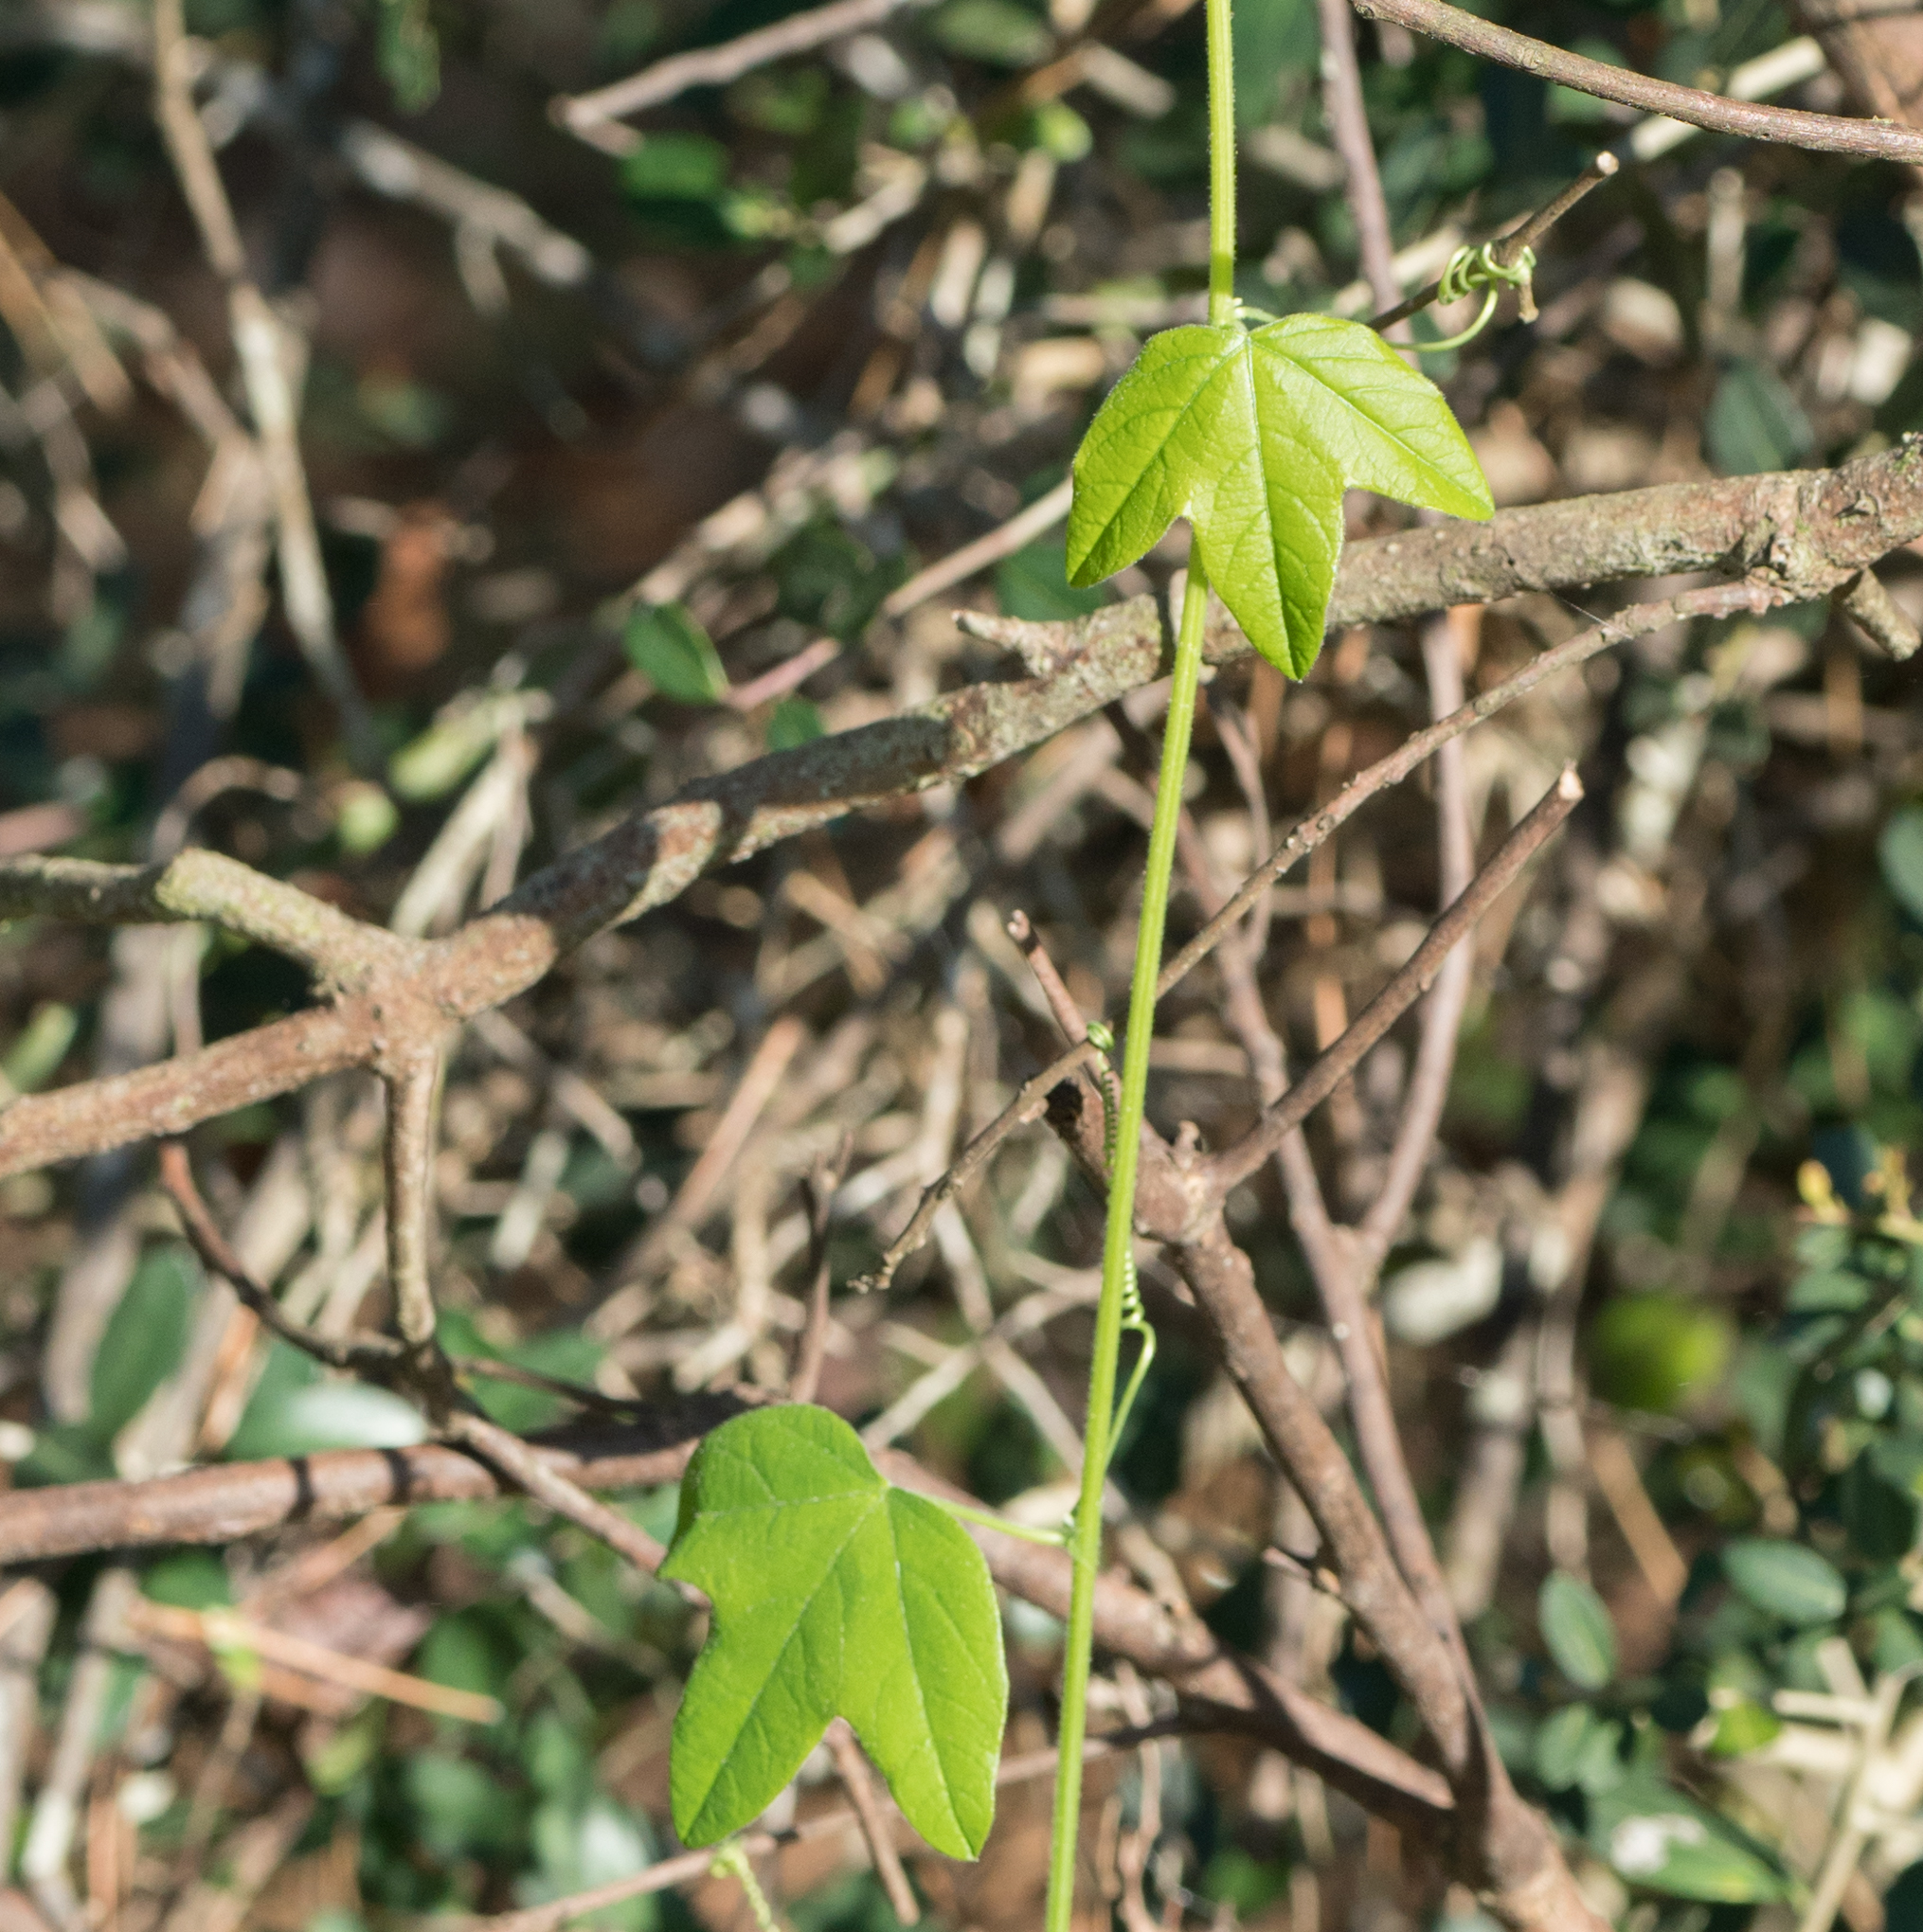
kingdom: Plantae
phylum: Tracheophyta
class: Magnoliopsida
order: Malpighiales
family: Passifloraceae
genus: Passiflora
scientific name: Passiflora lutea
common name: Yellow passionflower
